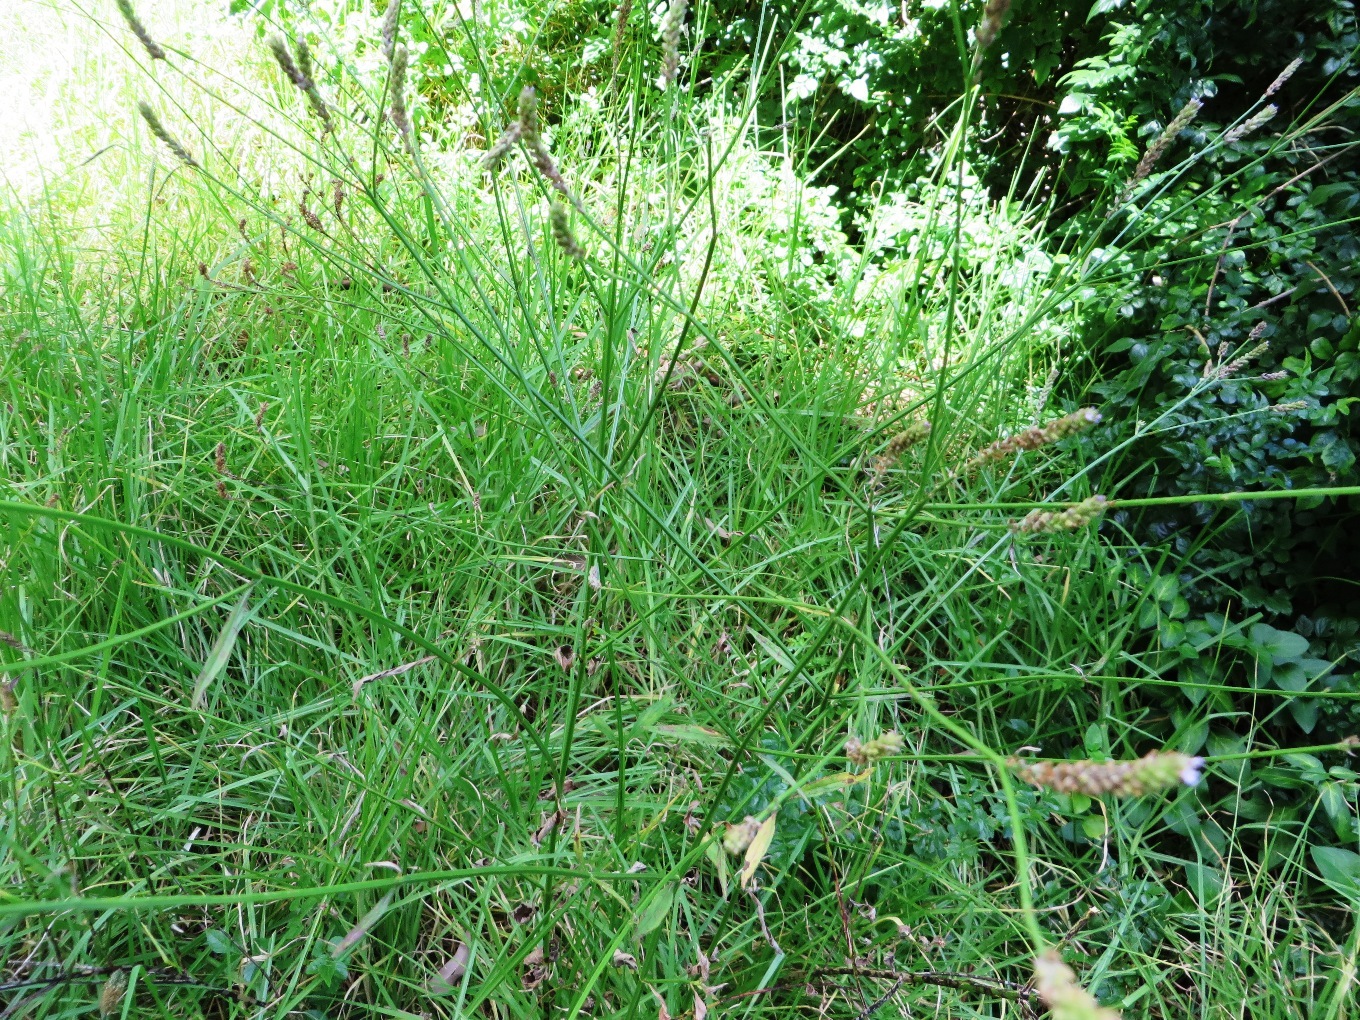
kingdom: Plantae
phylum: Tracheophyta
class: Magnoliopsida
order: Lamiales
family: Verbenaceae
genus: Verbena
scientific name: Verbena brasiliensis
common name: Brazilian vervain
